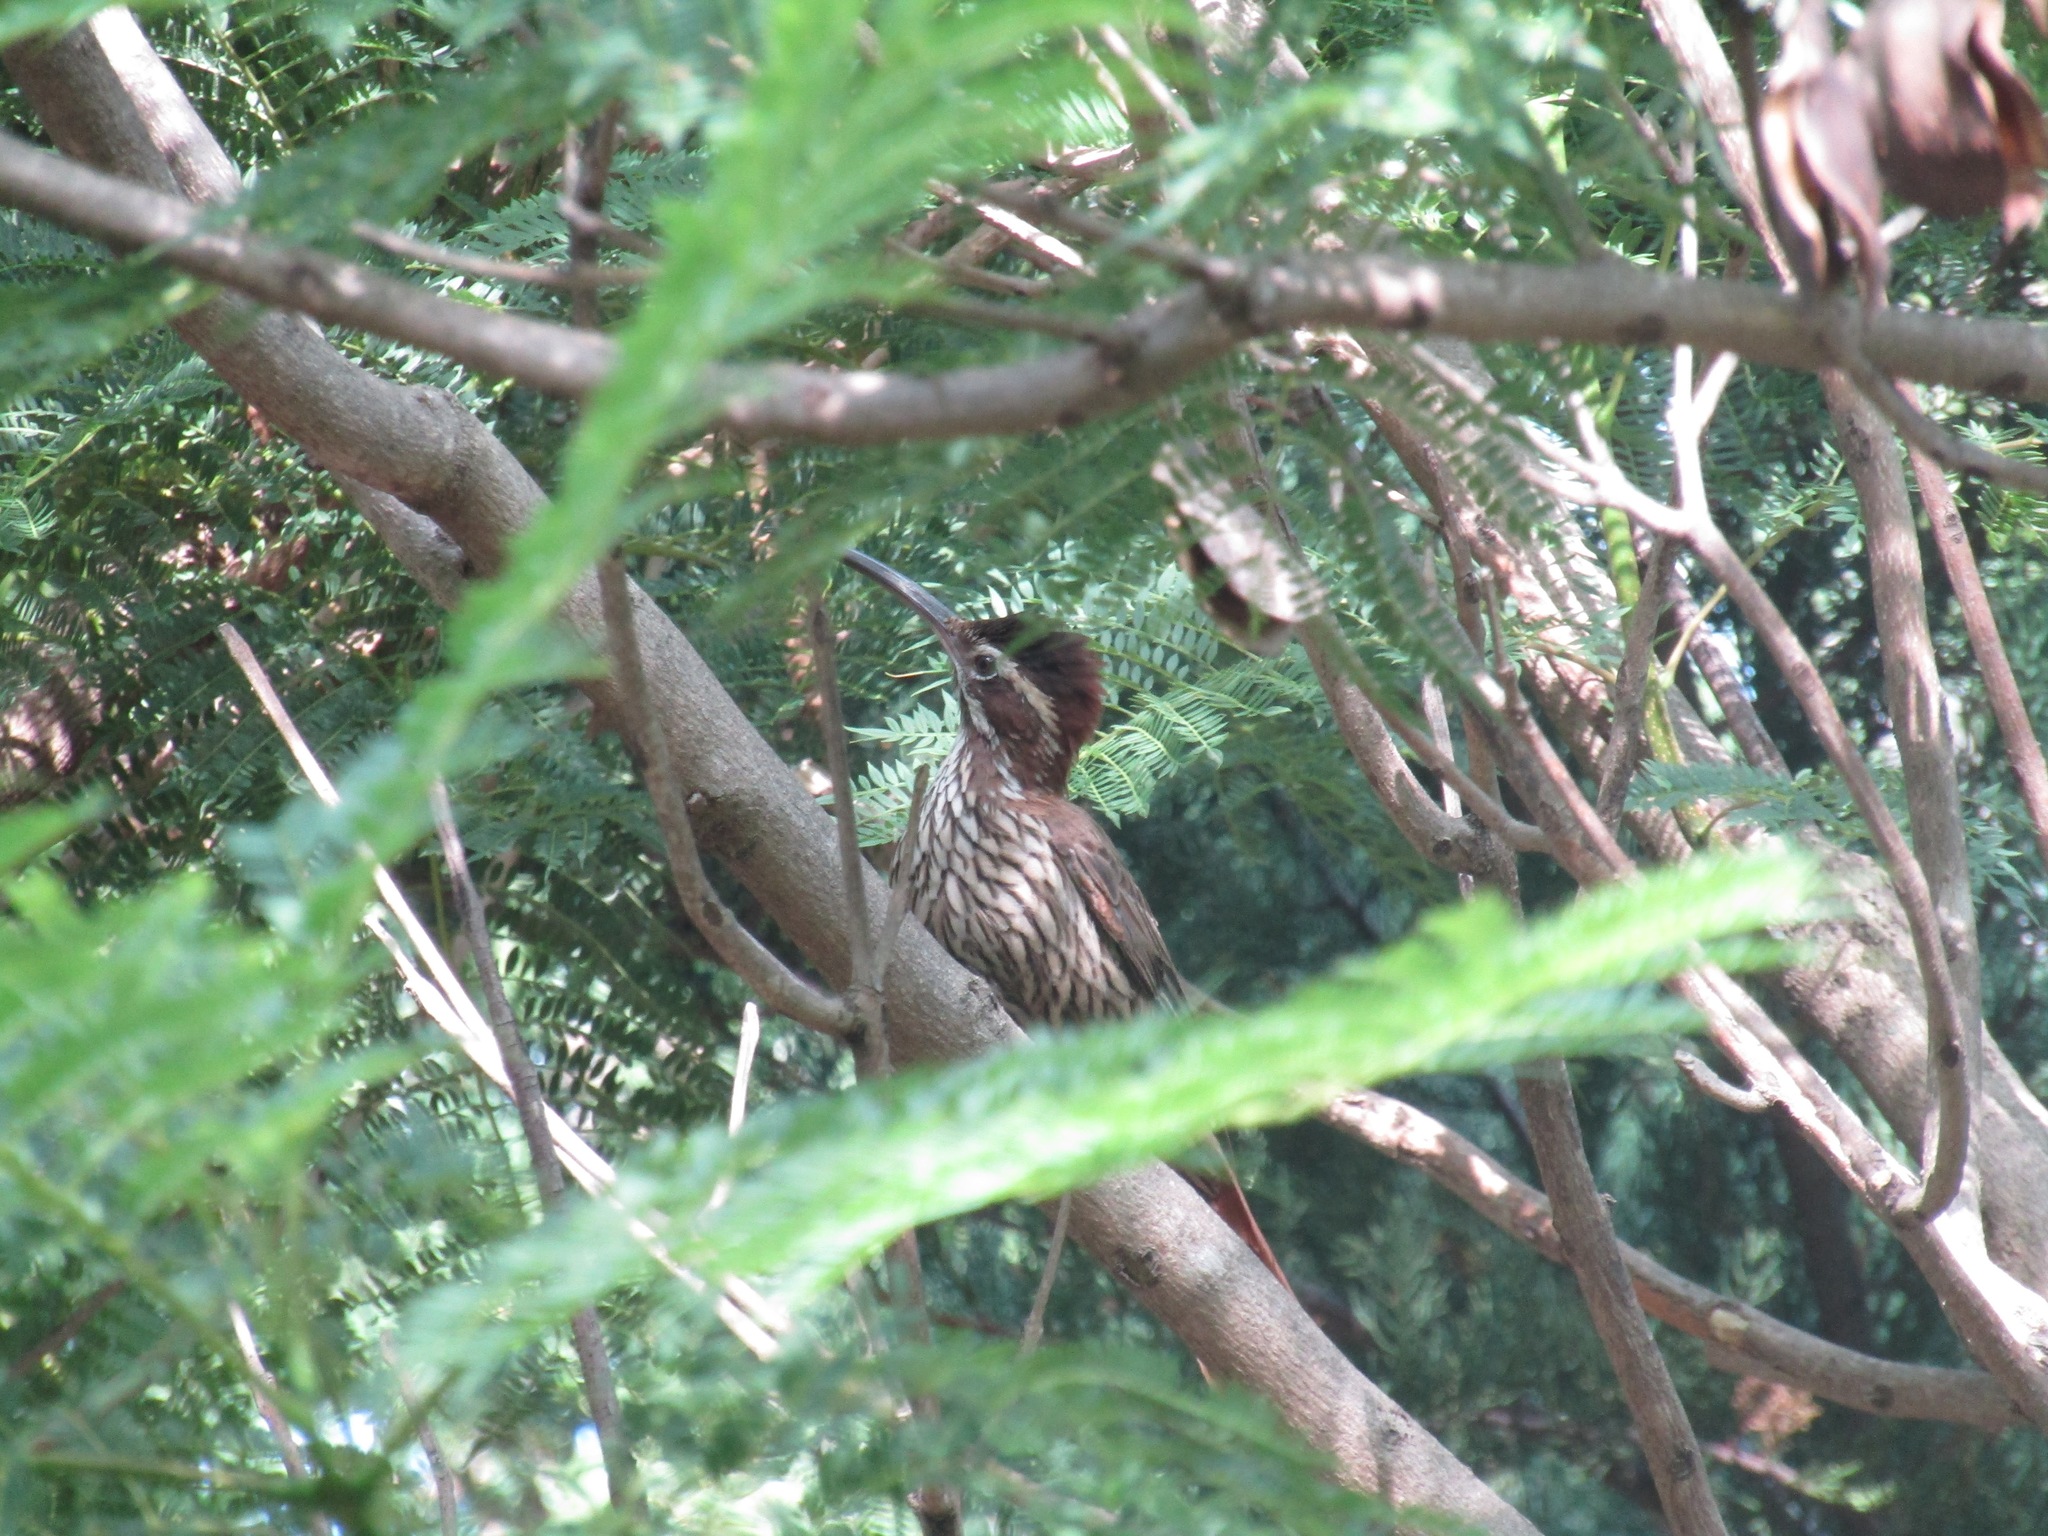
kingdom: Animalia
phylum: Chordata
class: Aves
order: Passeriformes
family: Furnariidae
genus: Drymornis
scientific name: Drymornis bridgesii
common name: Scimitar-billed woodcreeper
